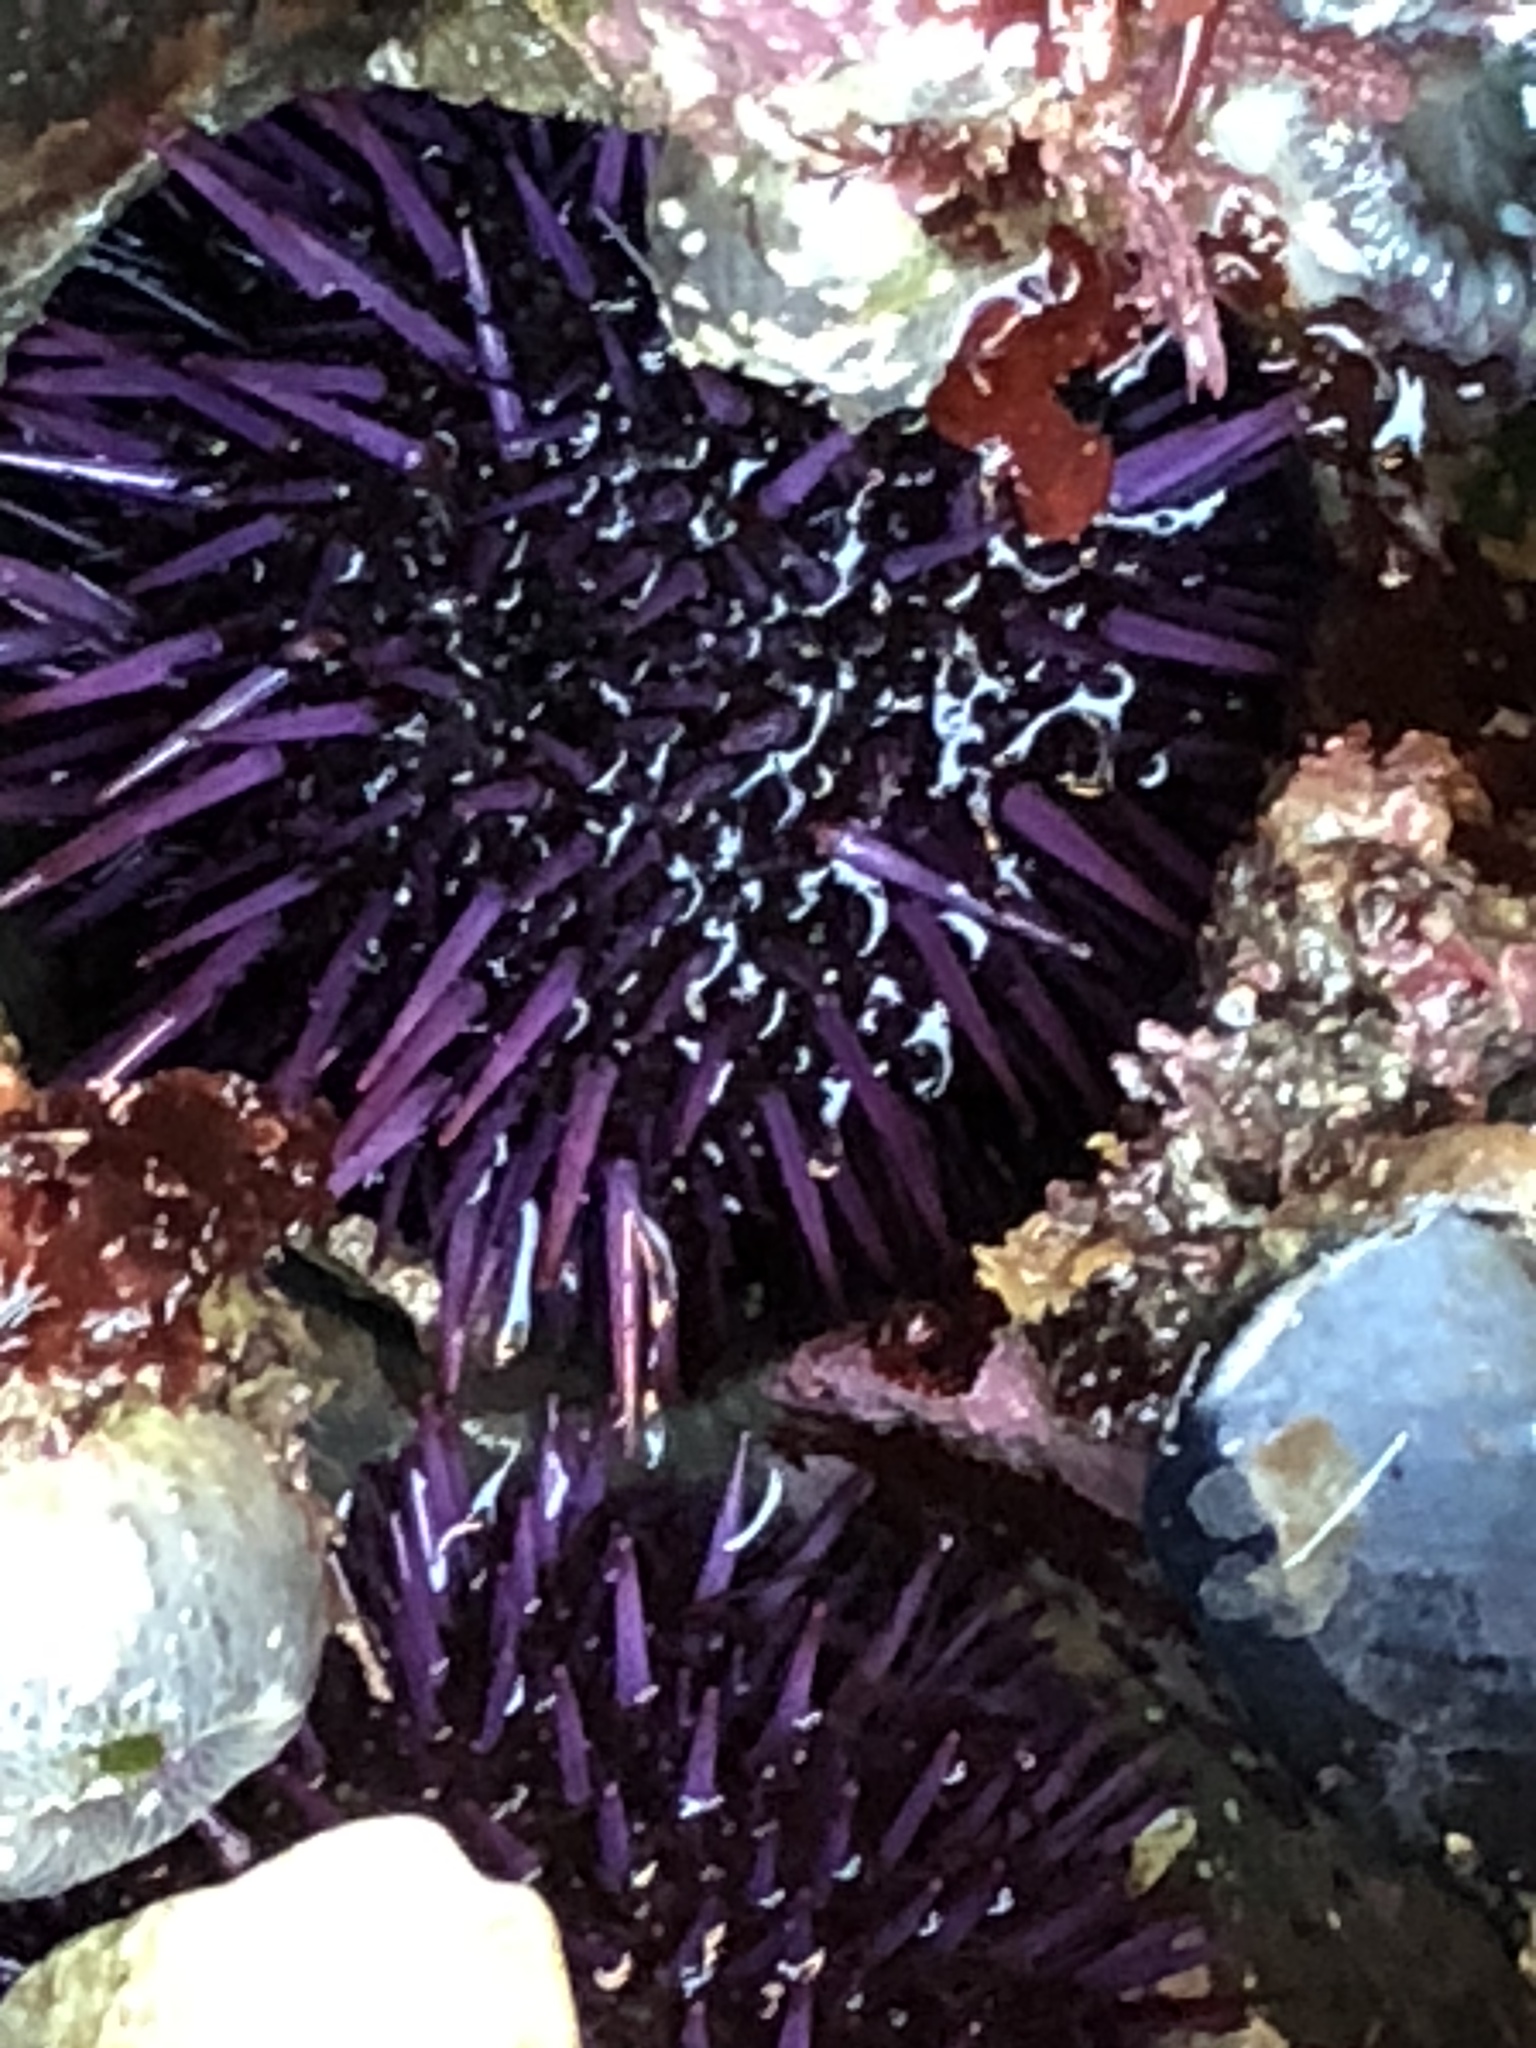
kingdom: Animalia
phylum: Echinodermata
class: Echinoidea
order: Camarodonta
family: Strongylocentrotidae
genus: Strongylocentrotus
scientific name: Strongylocentrotus purpuratus
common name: Purple sea urchin
